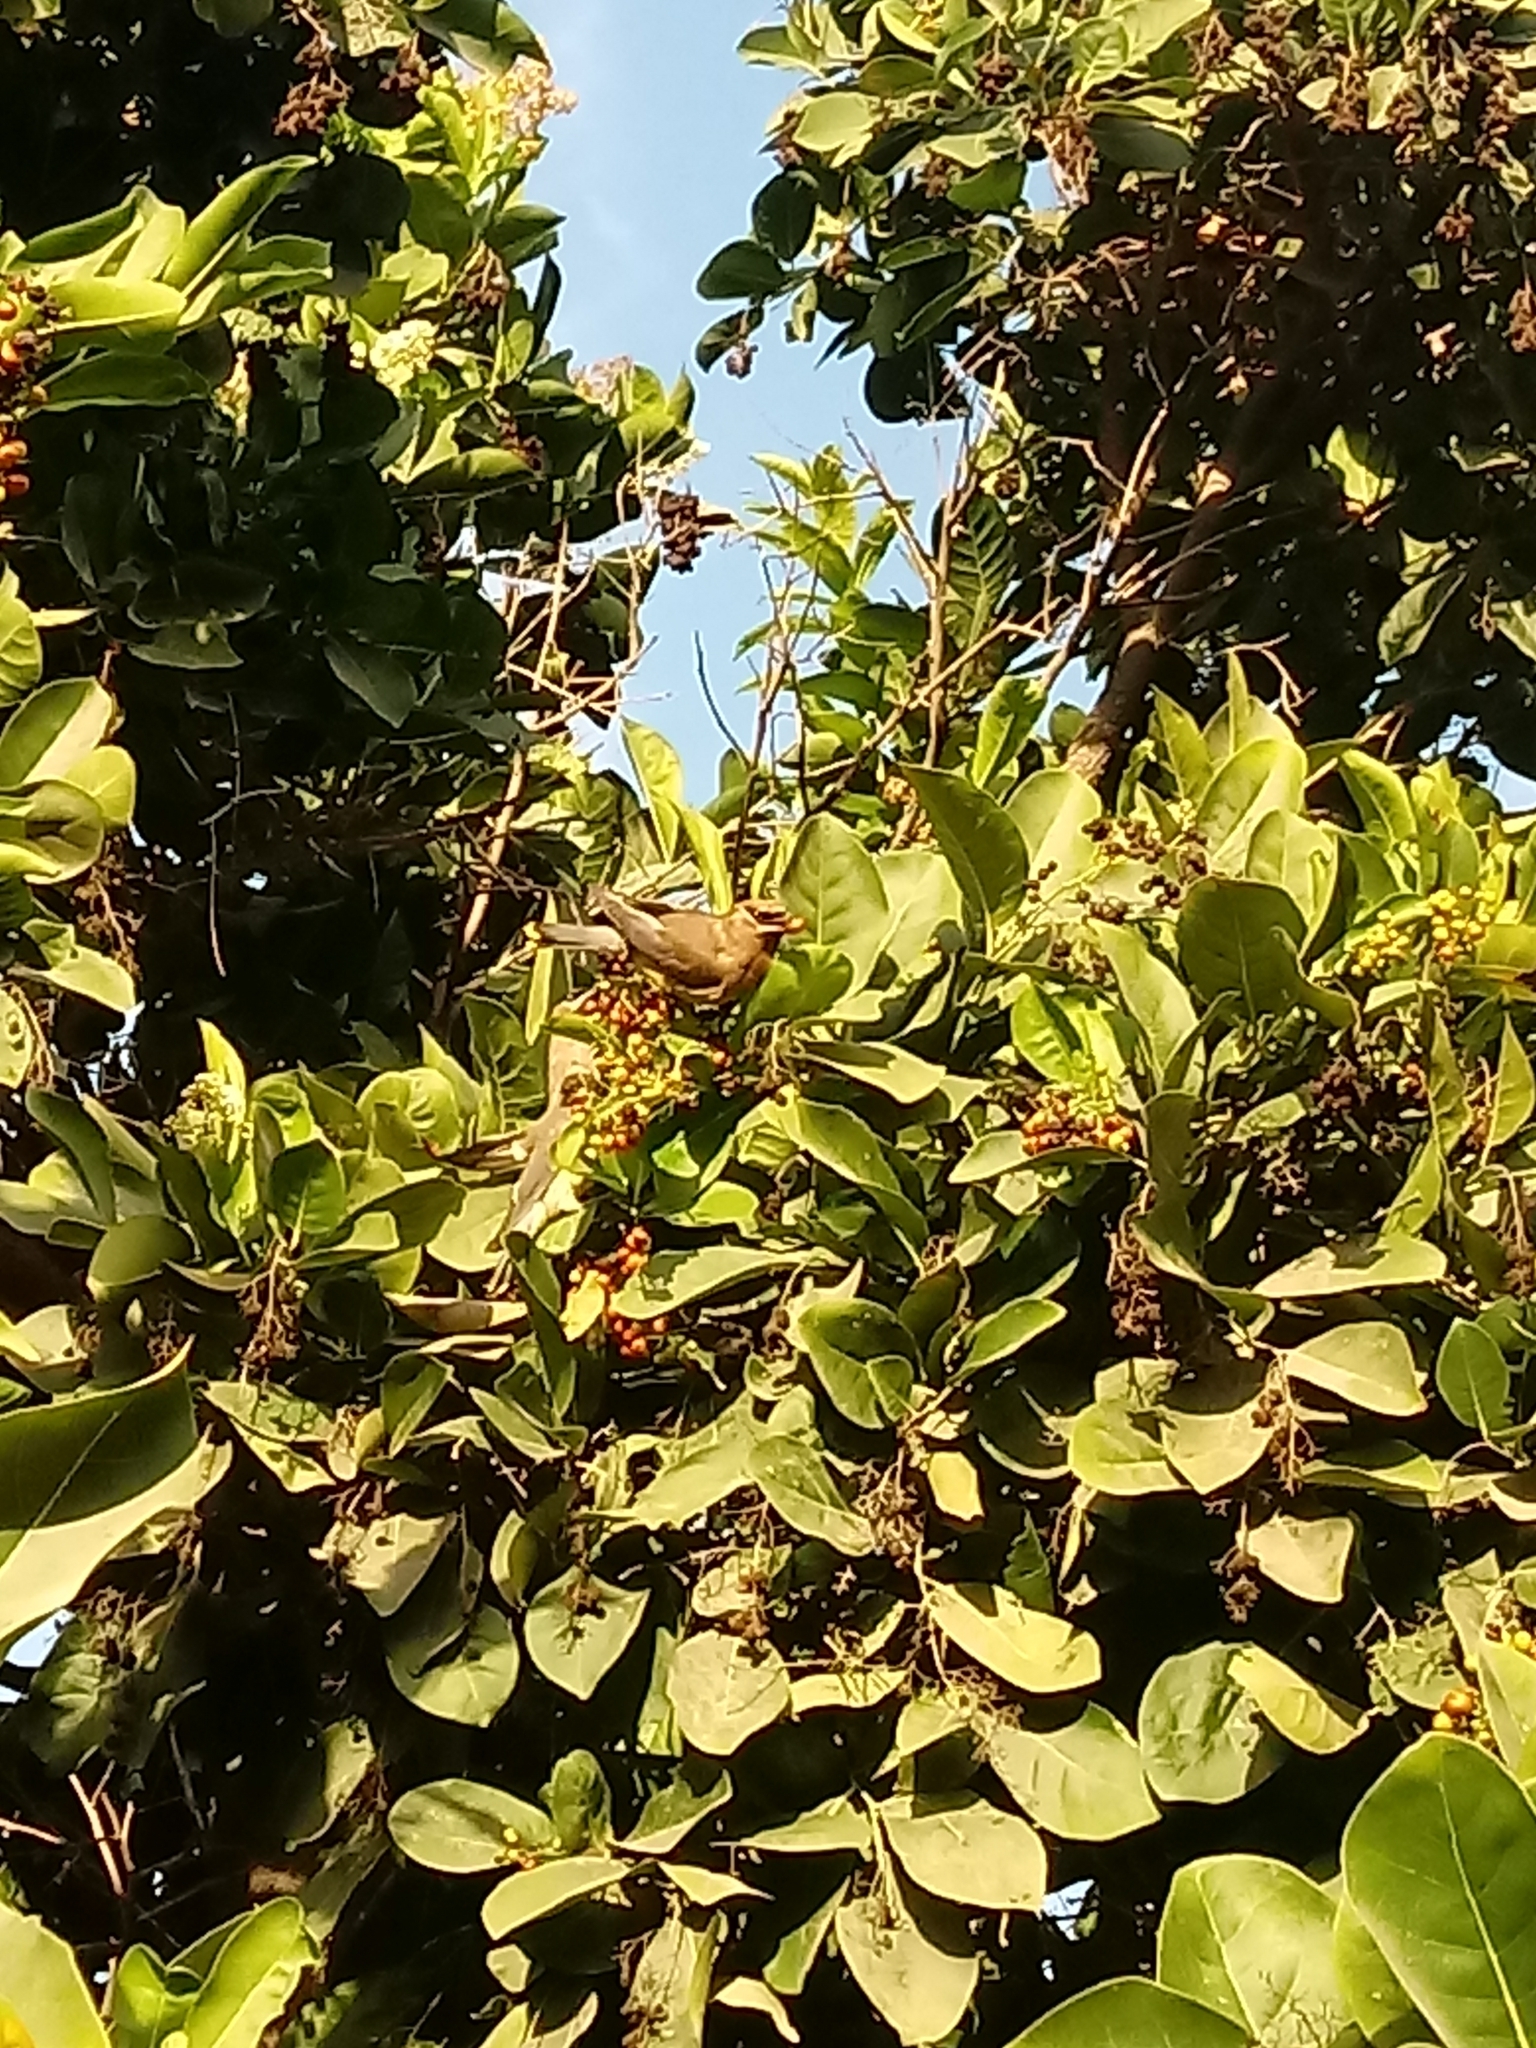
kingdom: Animalia
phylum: Chordata
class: Aves
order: Passeriformes
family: Bombycillidae
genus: Bombycilla
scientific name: Bombycilla cedrorum
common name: Cedar waxwing
